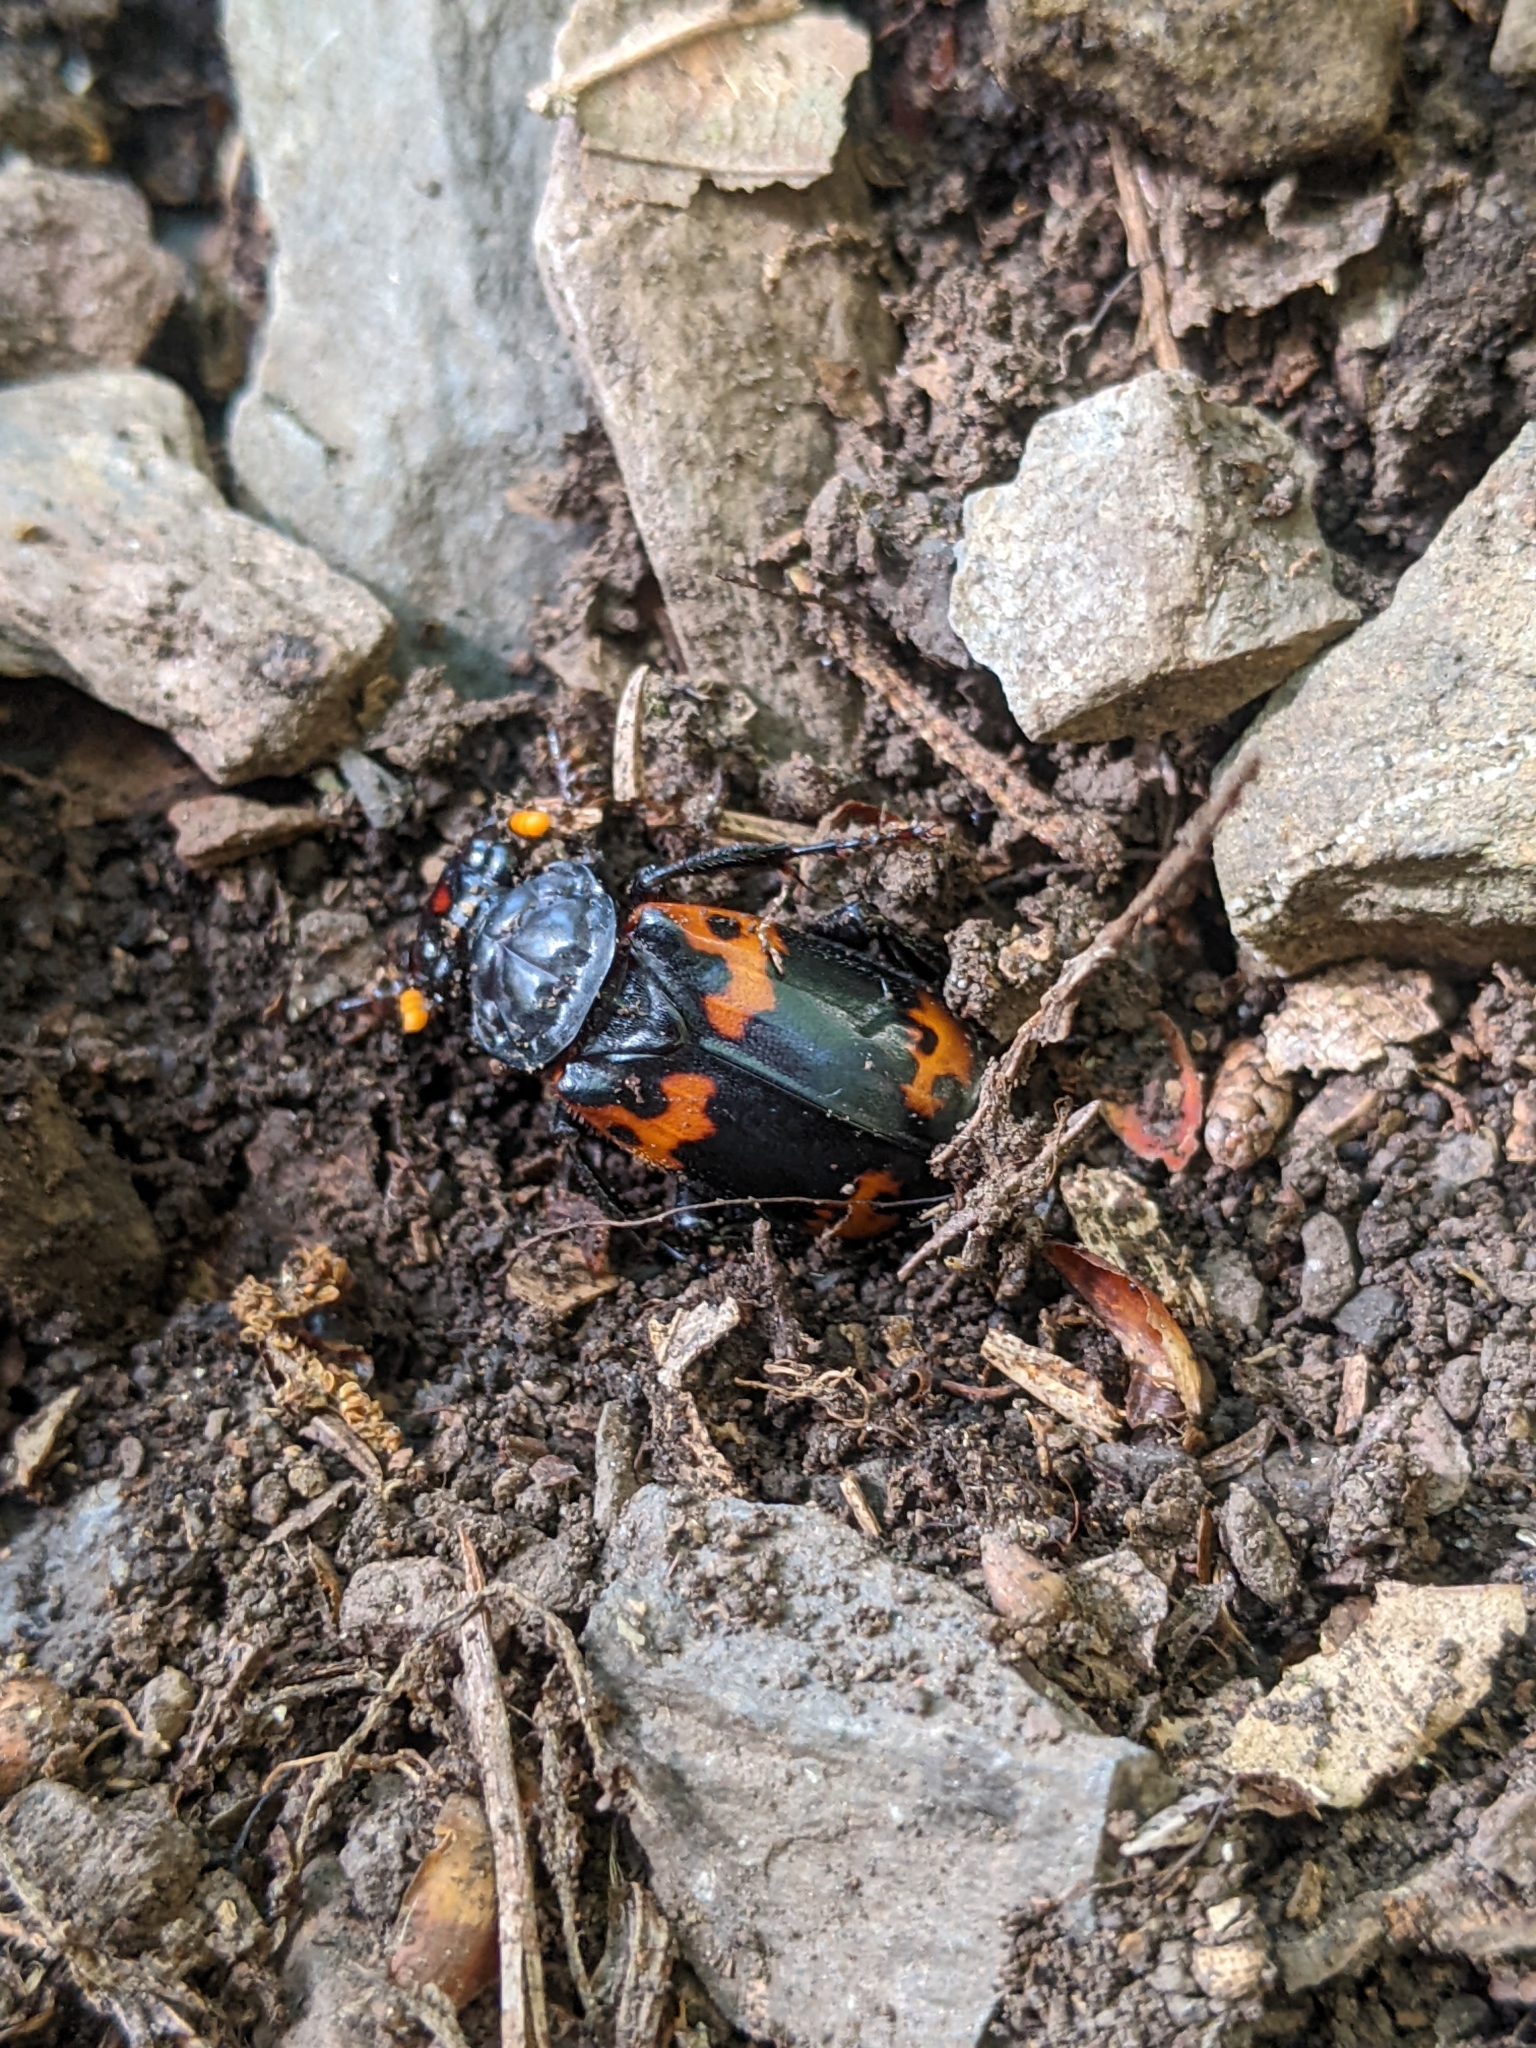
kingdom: Animalia
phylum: Arthropoda
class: Insecta
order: Coleoptera
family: Staphylinidae
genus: Nicrophorus
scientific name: Nicrophorus nepalensis
